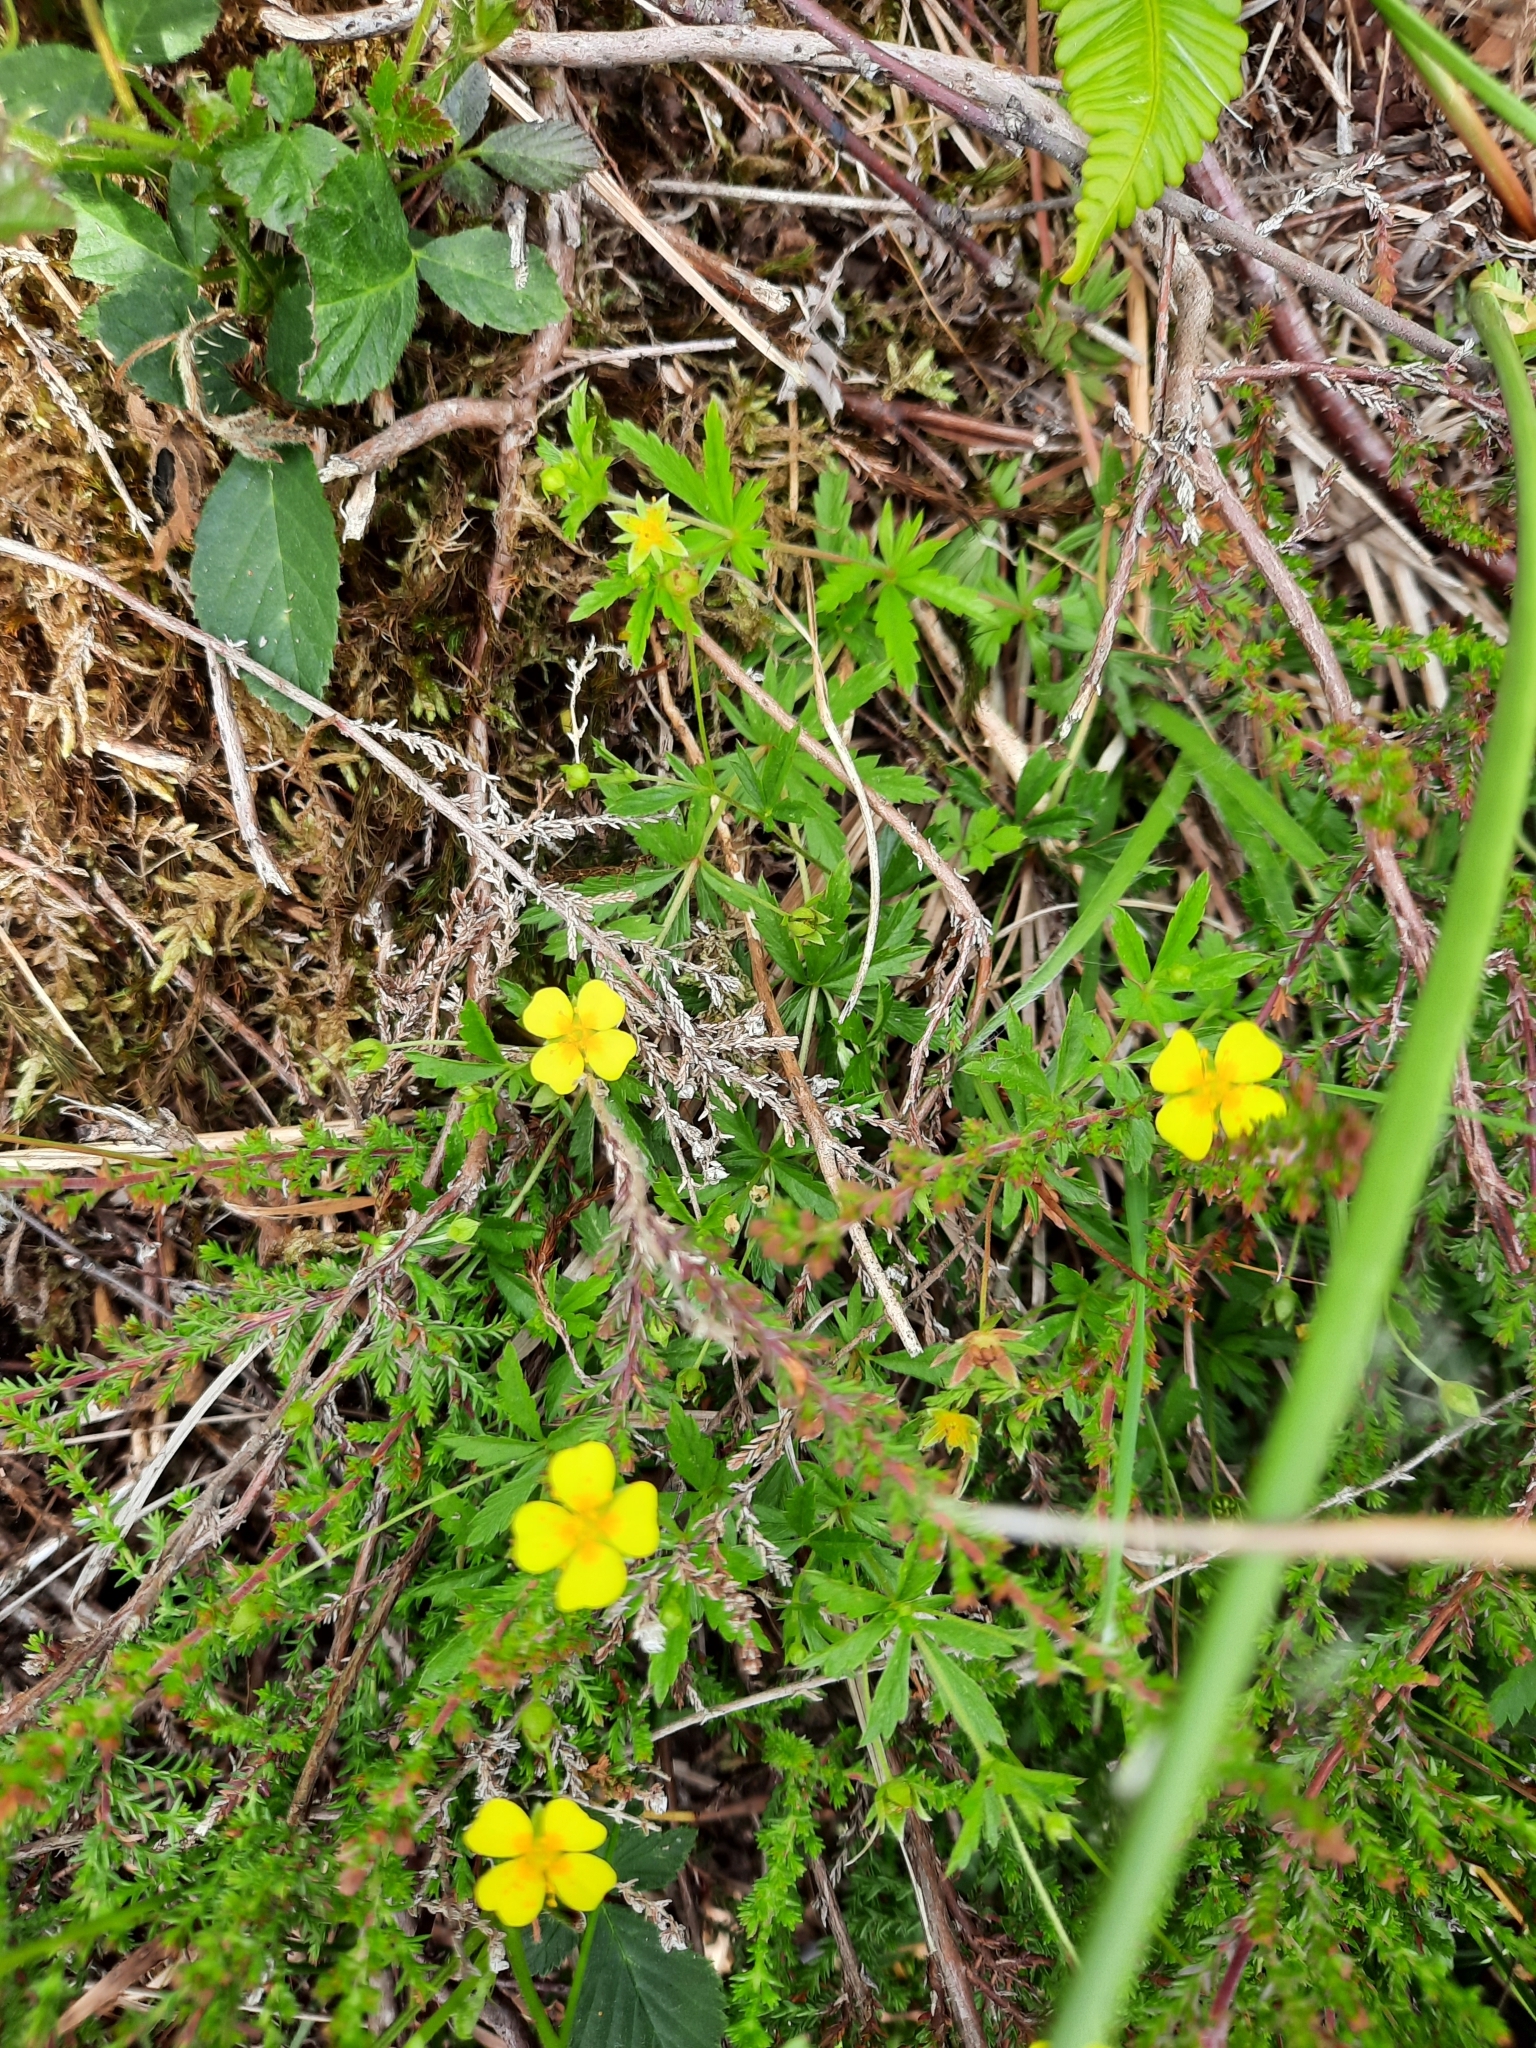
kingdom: Plantae
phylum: Tracheophyta
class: Magnoliopsida
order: Rosales
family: Rosaceae
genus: Potentilla
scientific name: Potentilla erecta
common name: Tormentil
